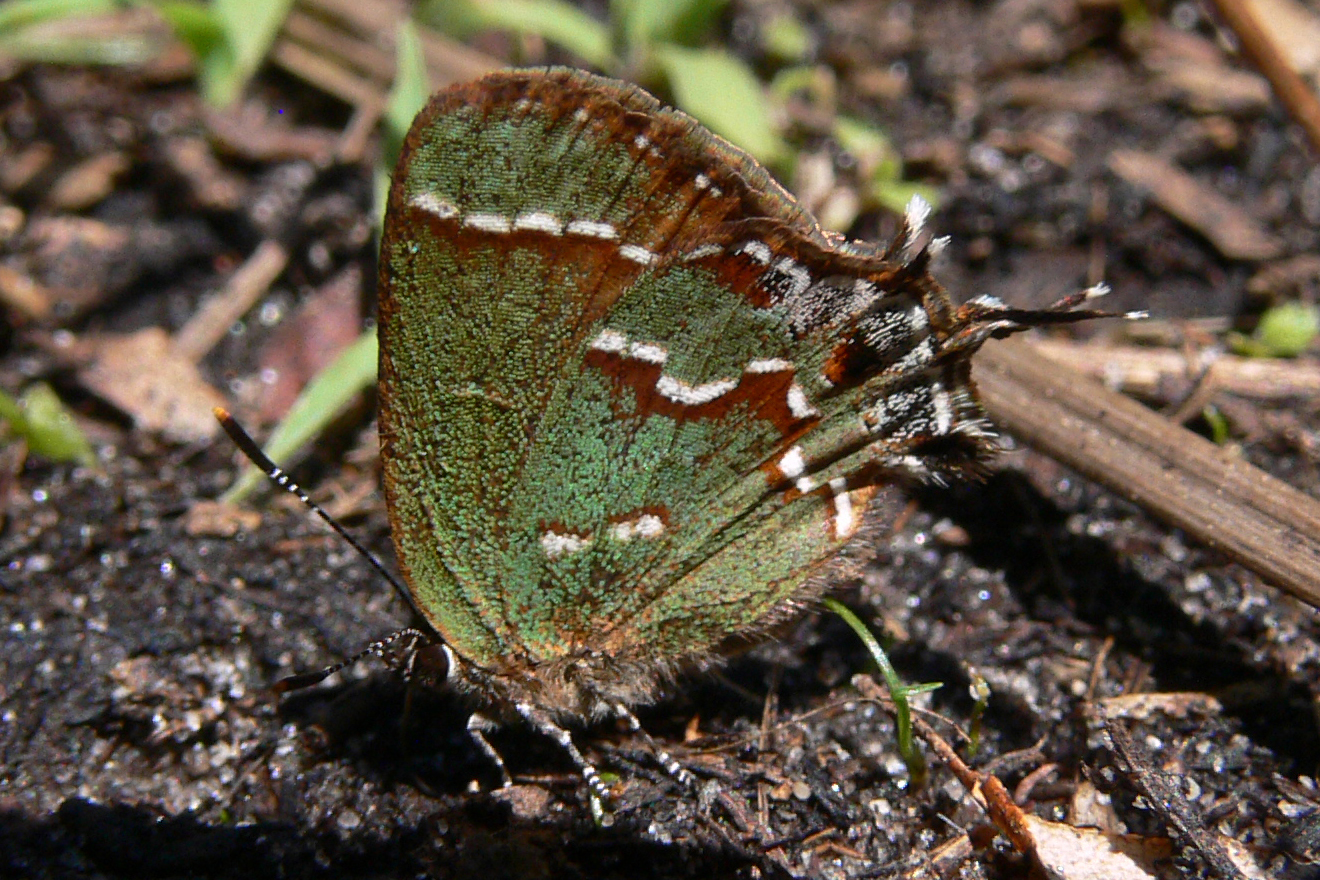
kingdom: Animalia
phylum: Arthropoda
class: Insecta
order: Lepidoptera
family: Lycaenidae
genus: Mitoura
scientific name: Mitoura gryneus
